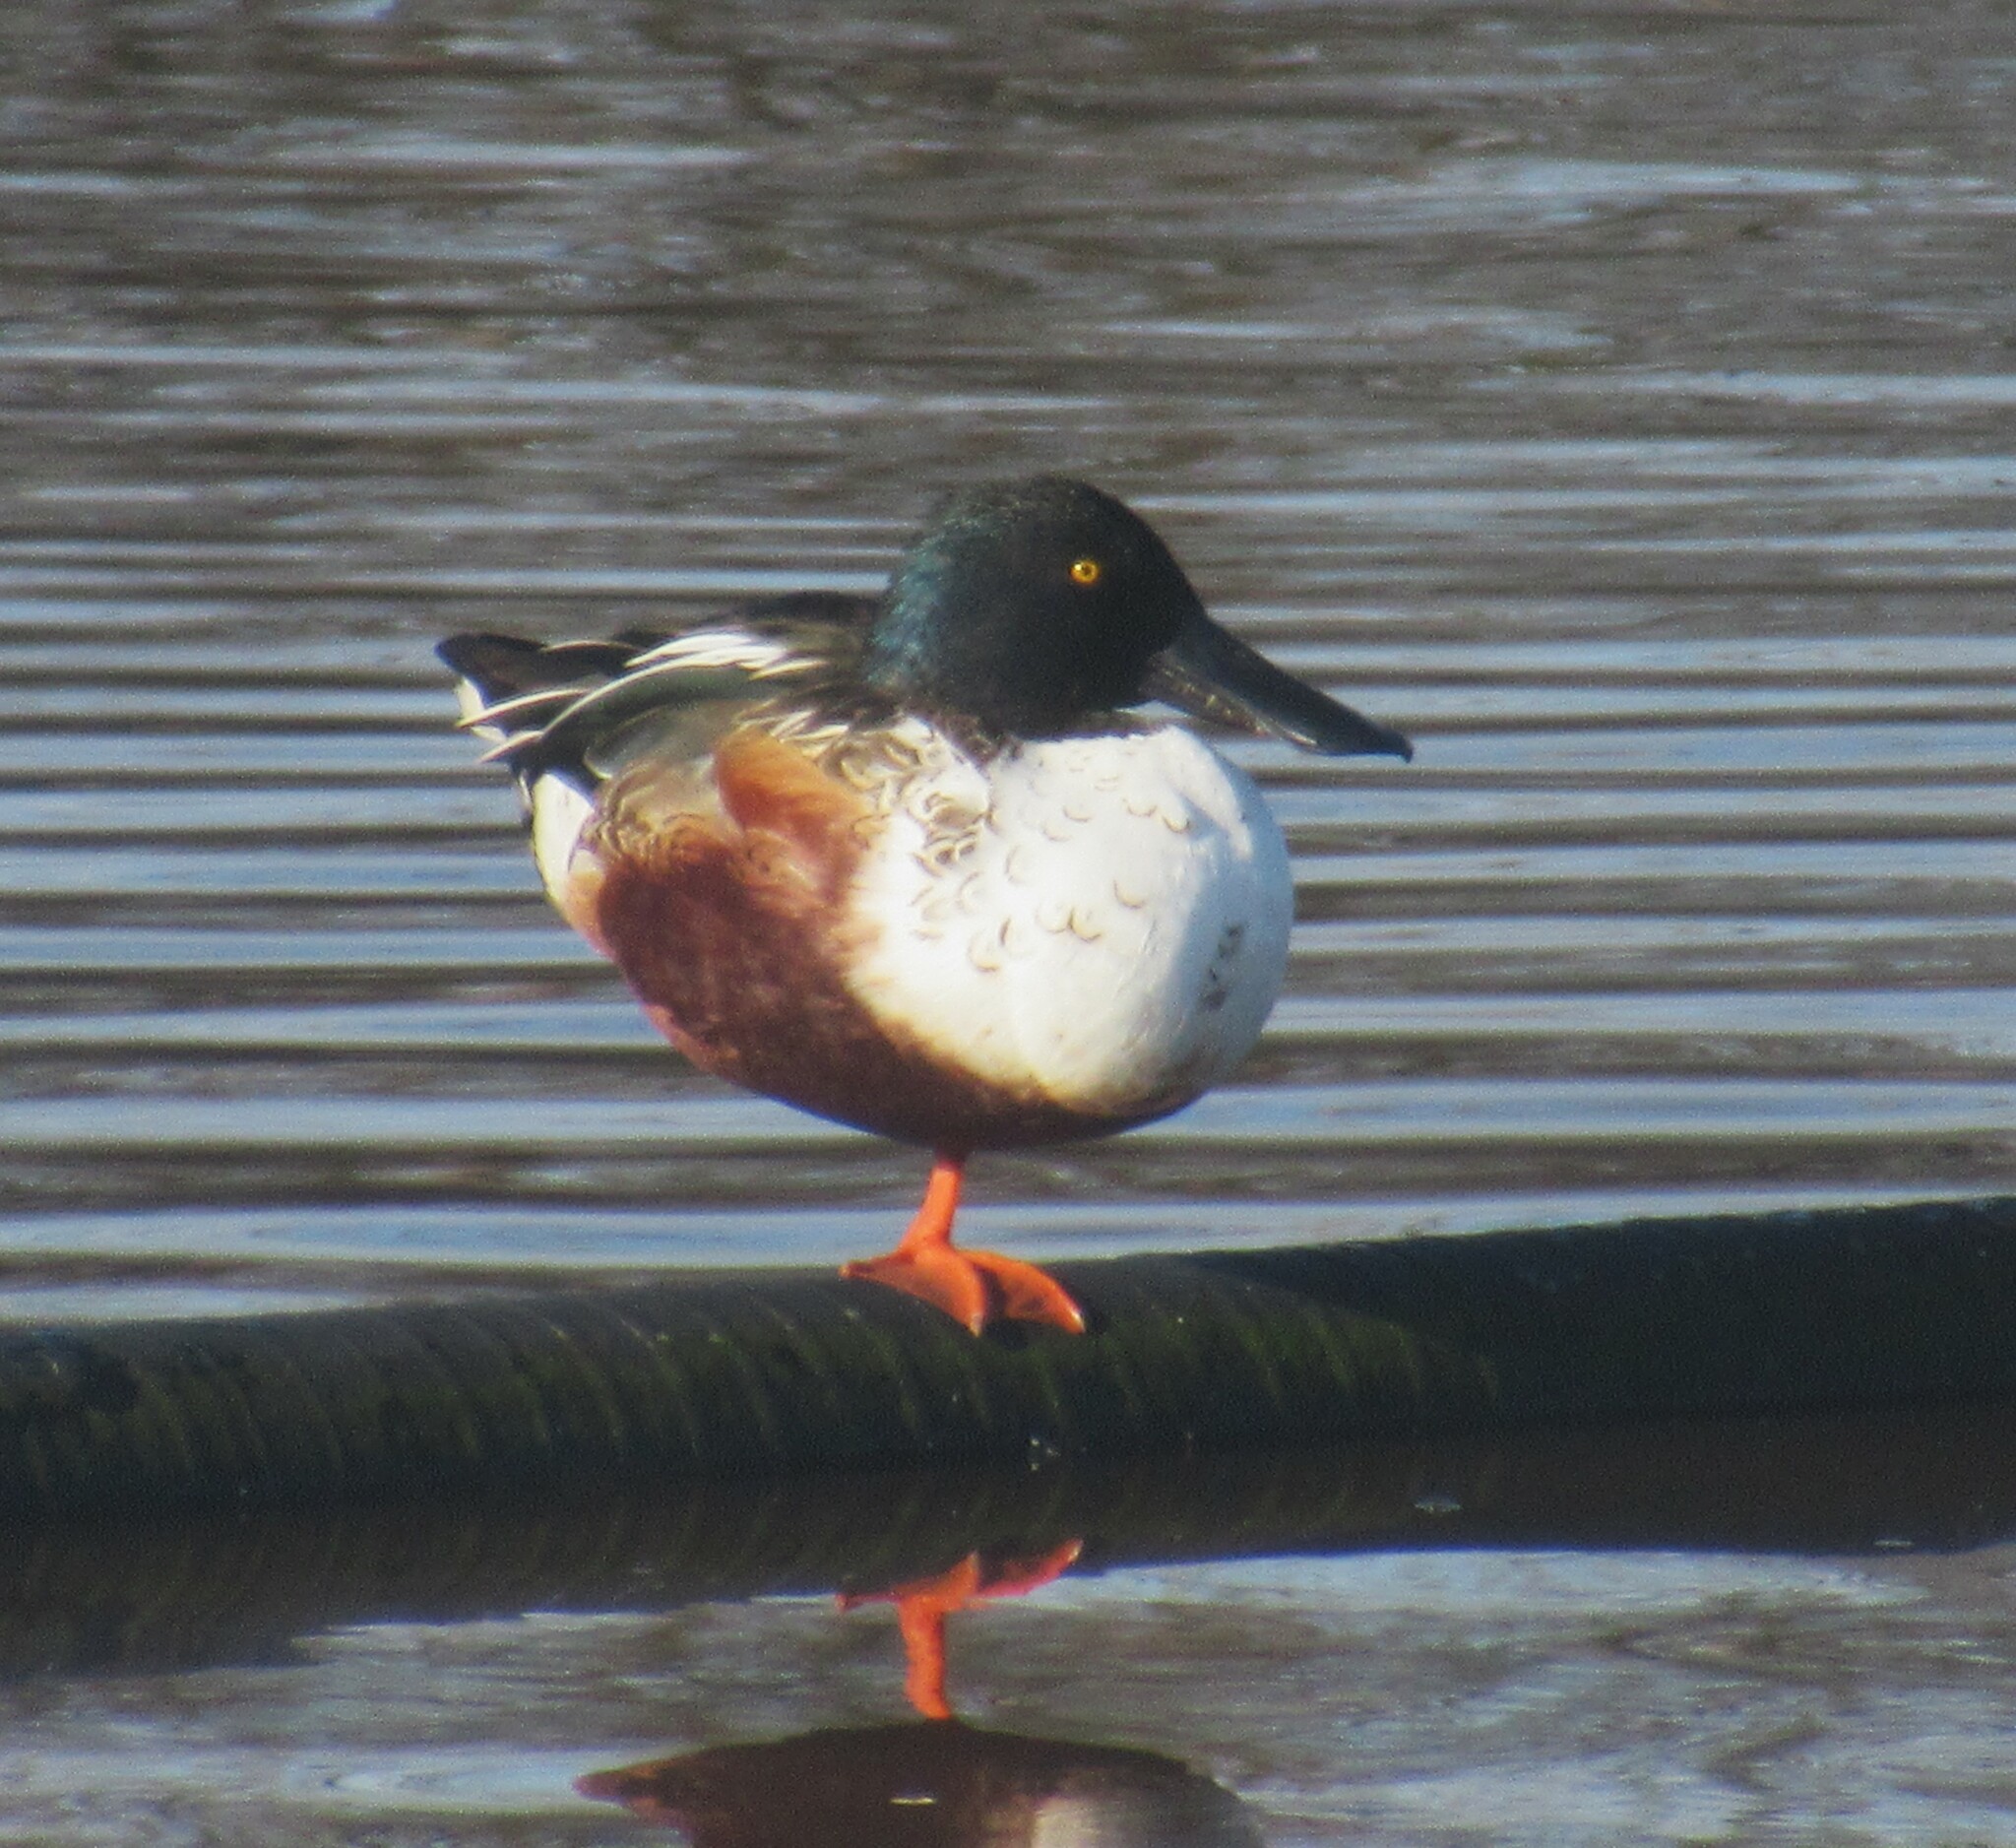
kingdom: Animalia
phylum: Chordata
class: Aves
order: Anseriformes
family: Anatidae
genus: Spatula
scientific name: Spatula clypeata
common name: Northern shoveler
